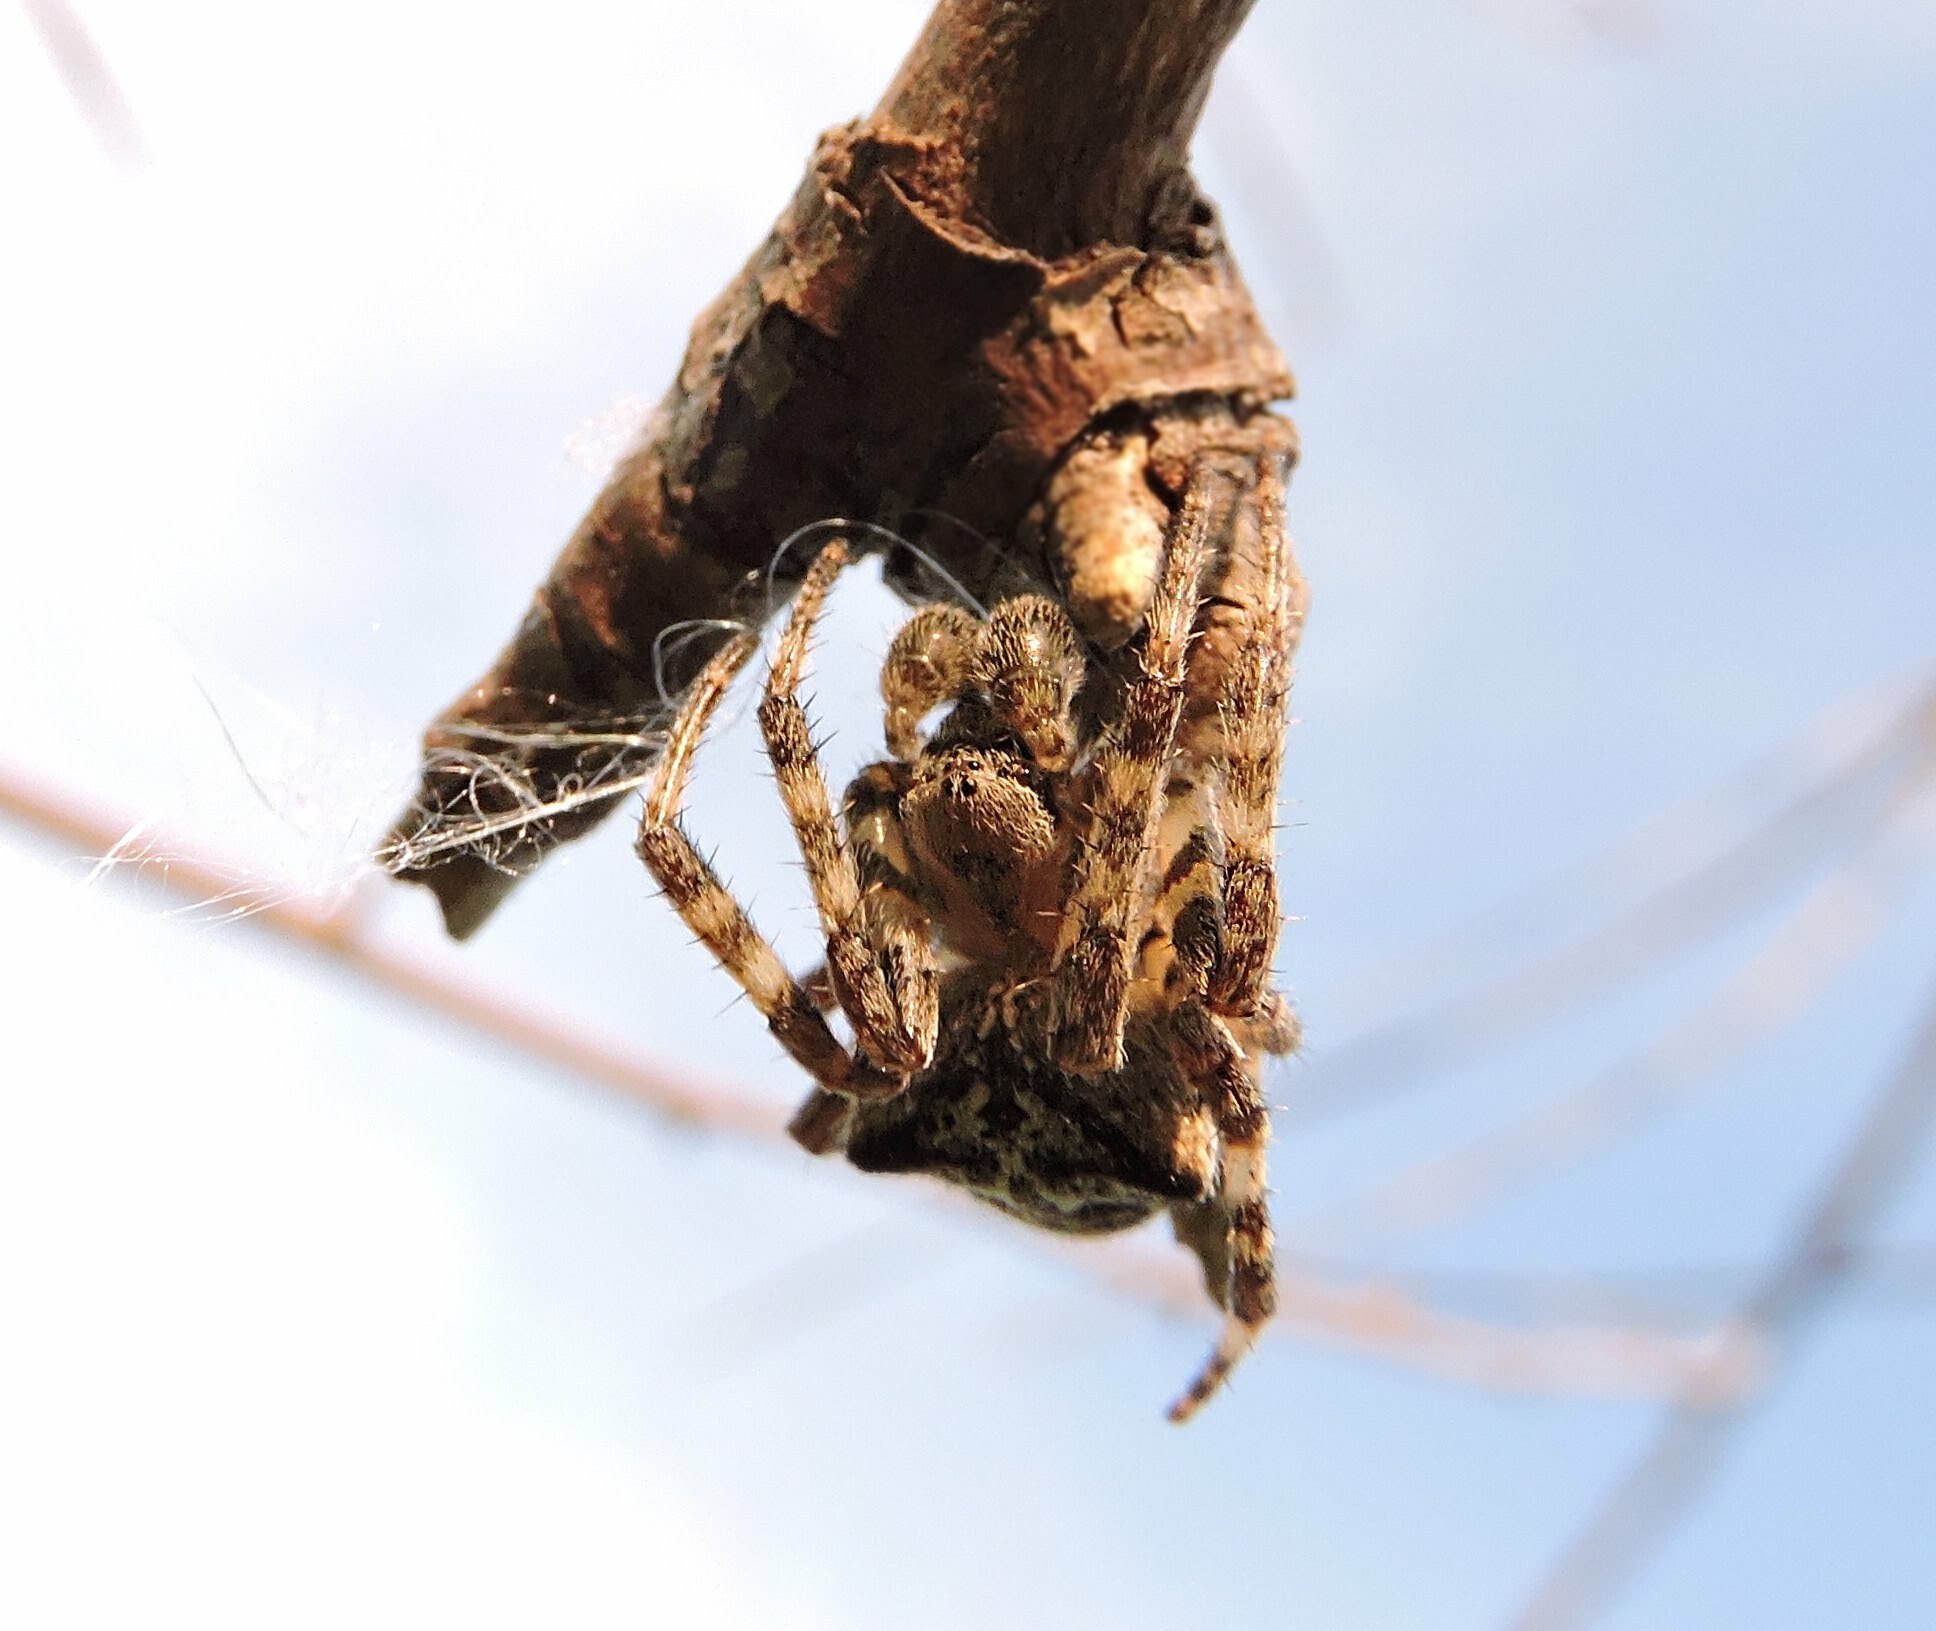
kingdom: Animalia
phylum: Arthropoda
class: Arachnida
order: Araneae
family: Araneidae
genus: Araneus
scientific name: Araneus angulatus
